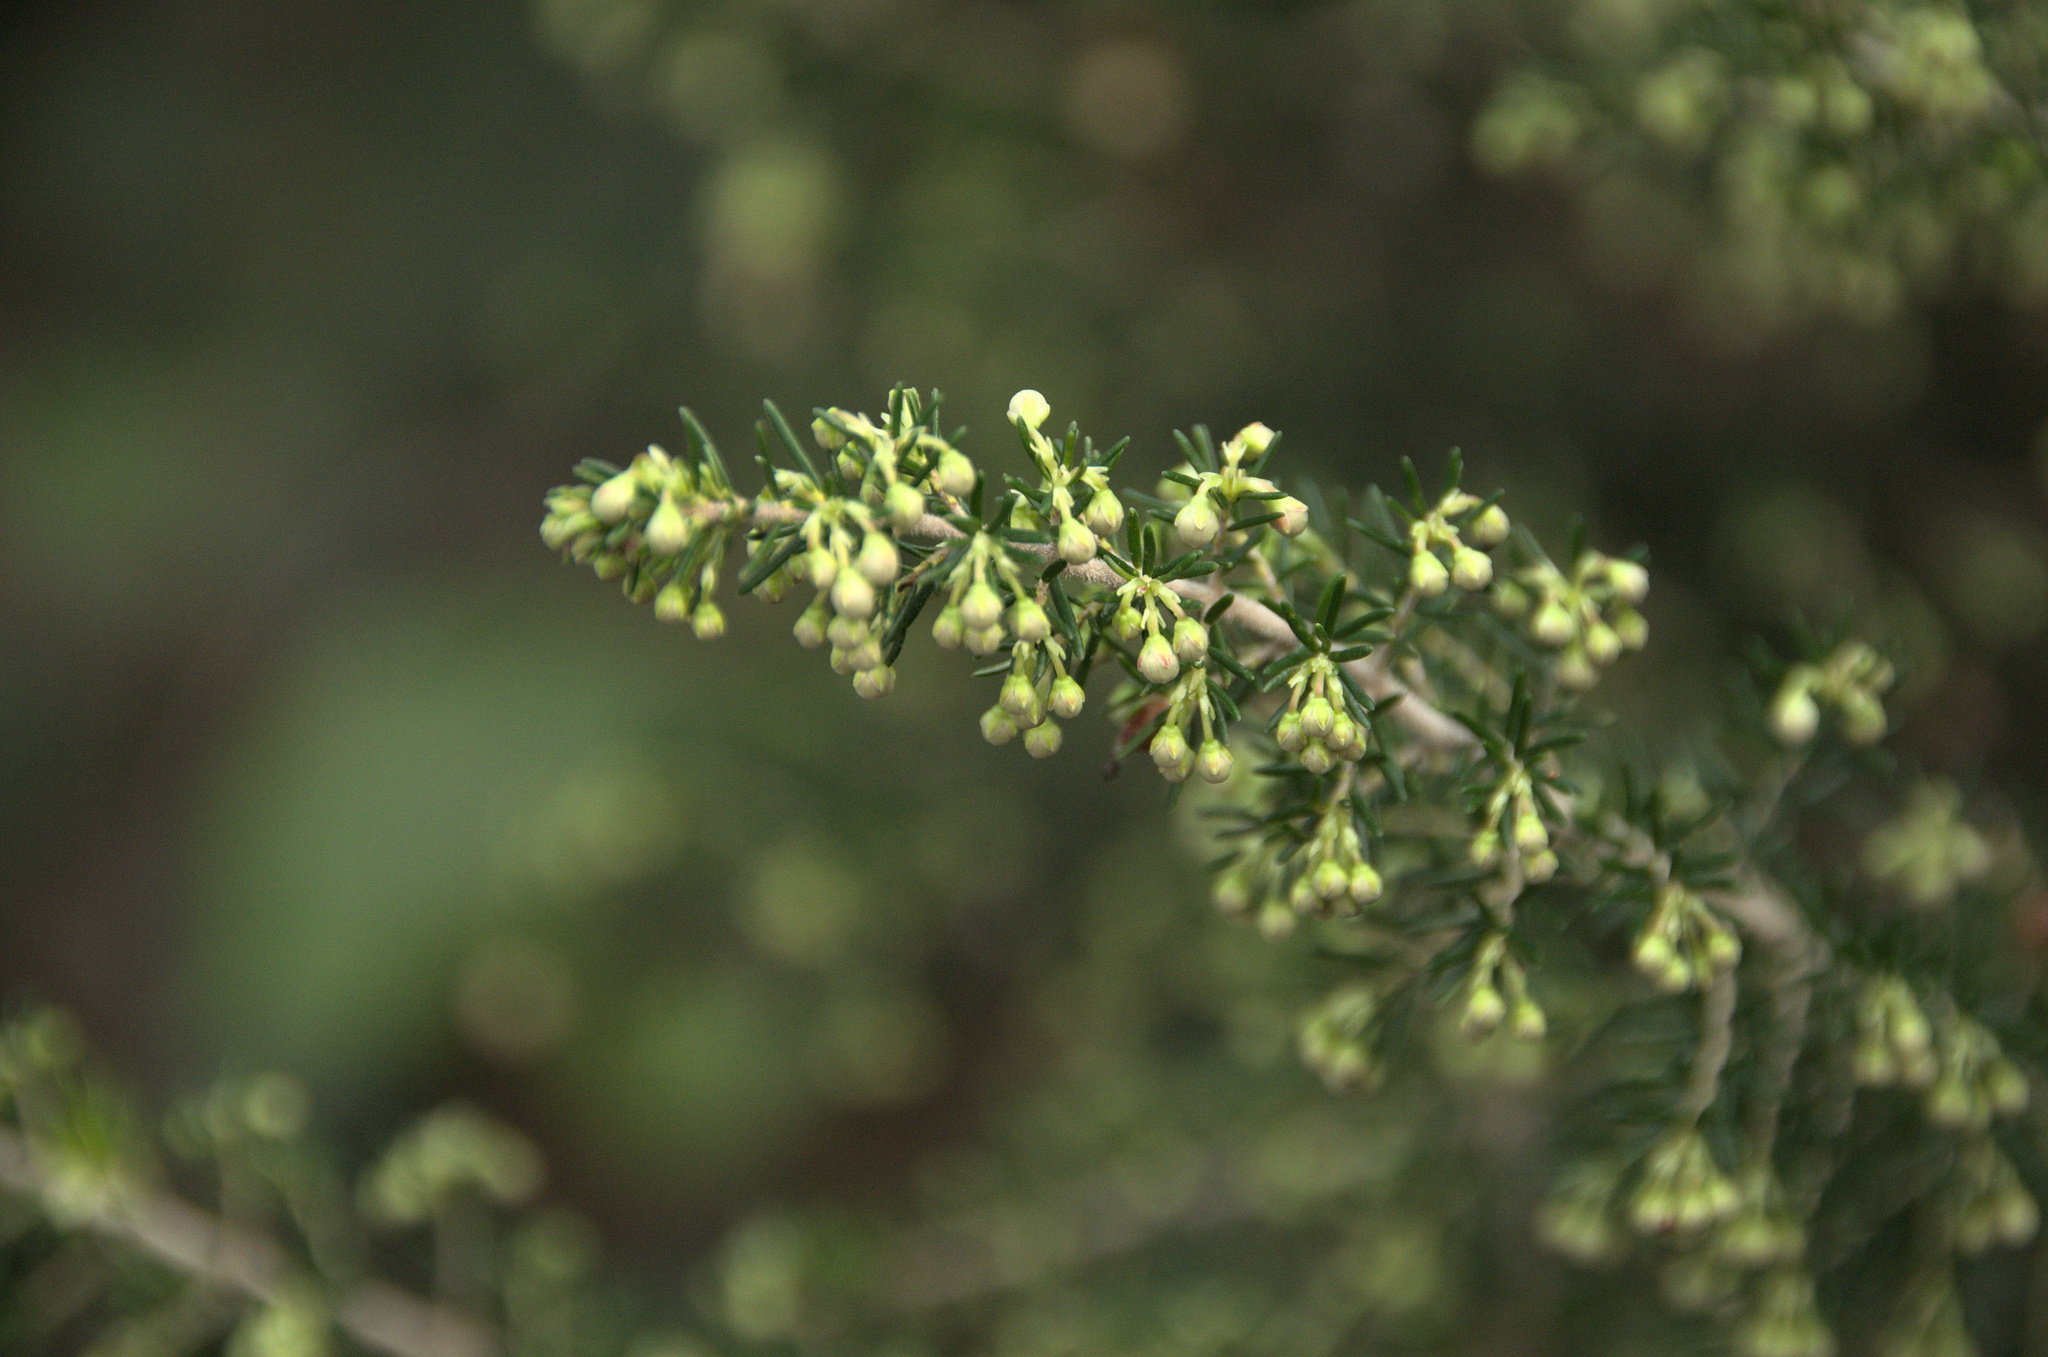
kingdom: Plantae
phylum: Tracheophyta
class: Magnoliopsida
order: Ericales
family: Ericaceae
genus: Erica
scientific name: Erica arborea
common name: Tree heath
